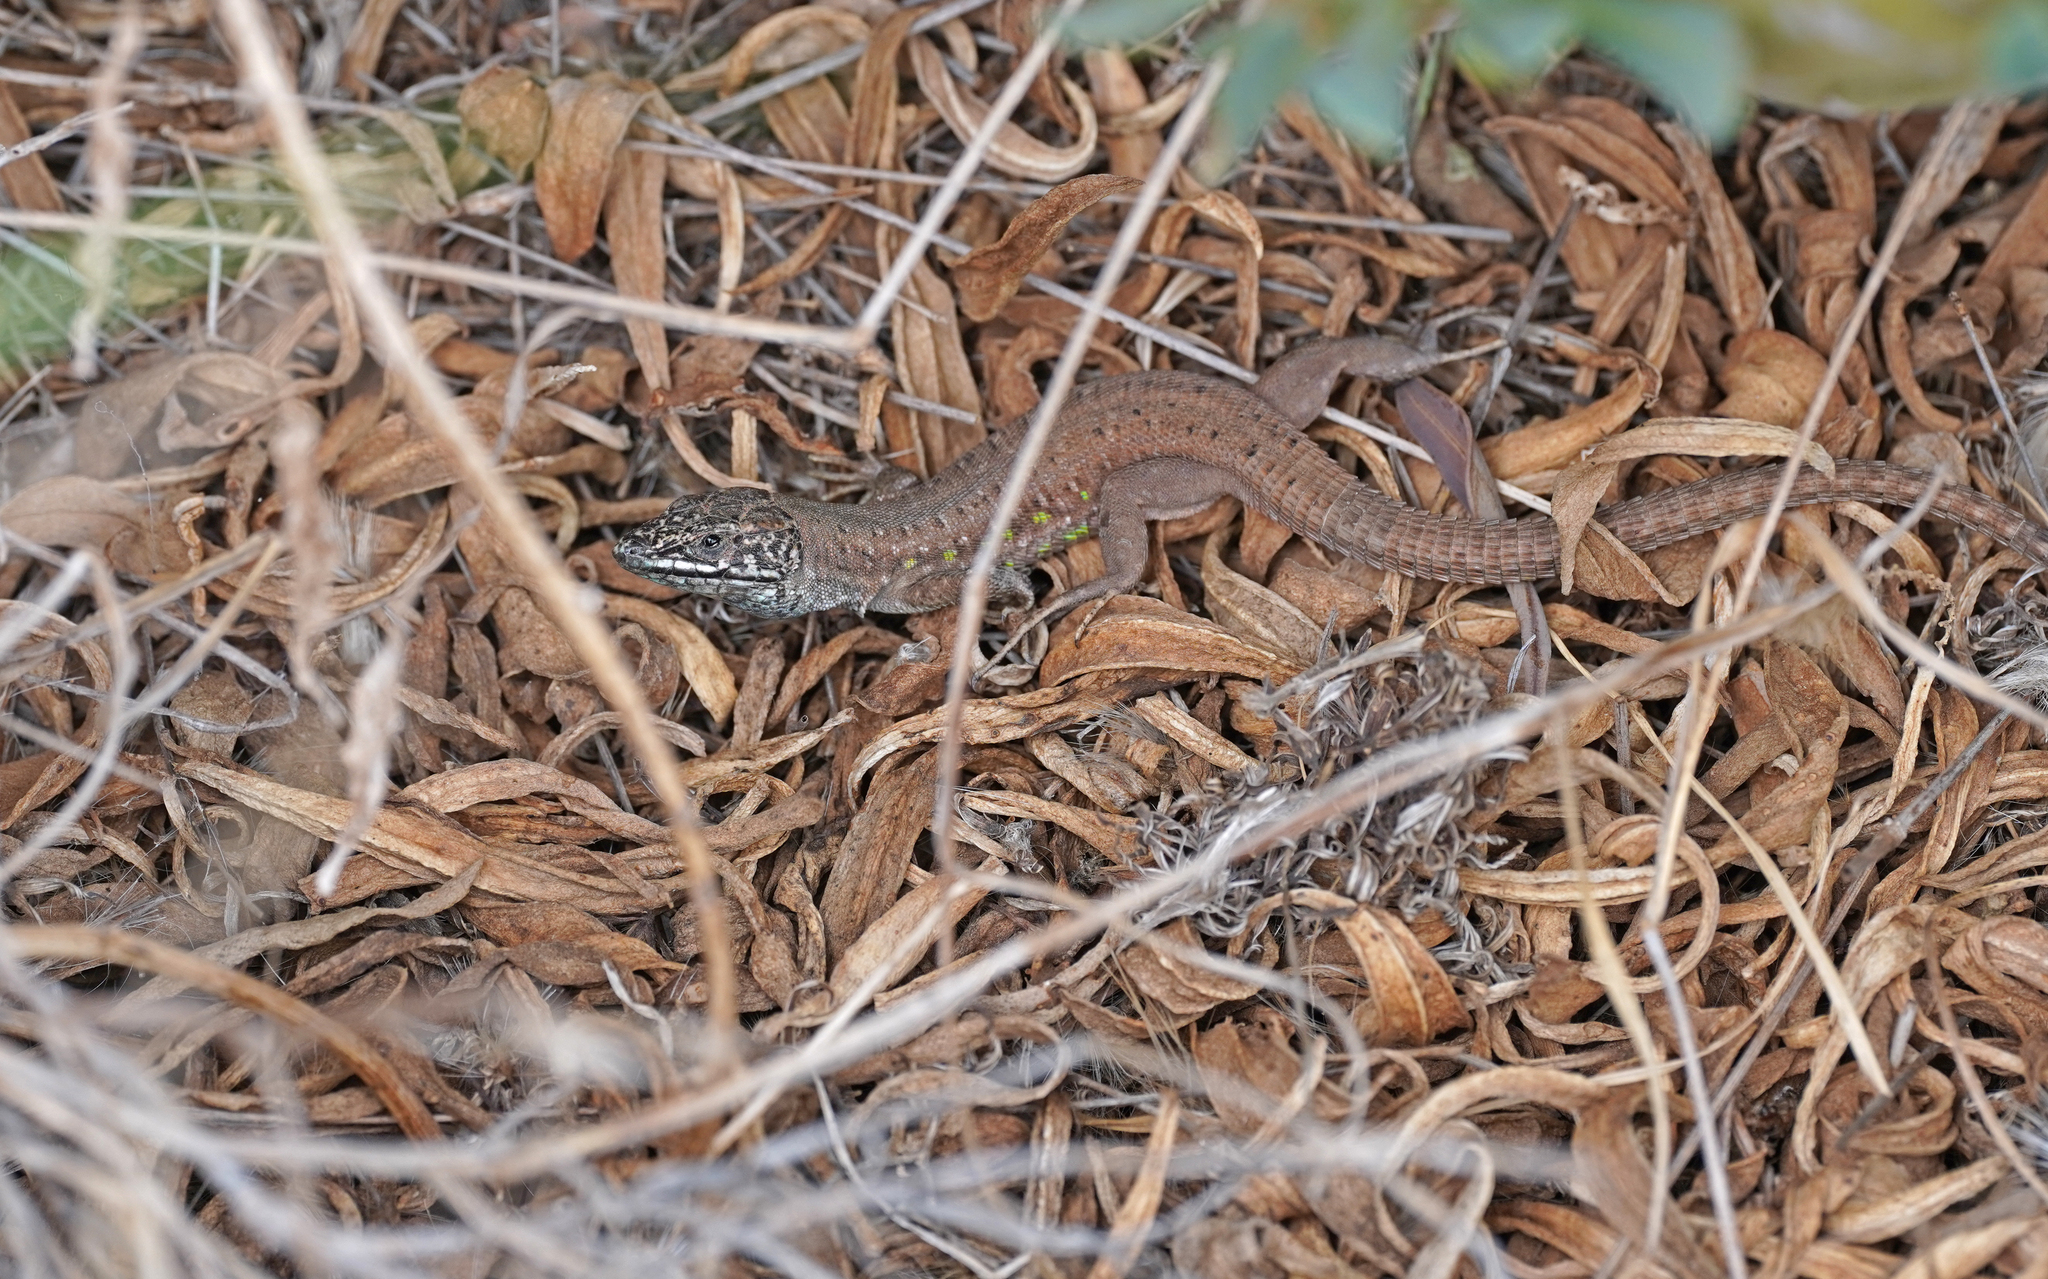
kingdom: Animalia
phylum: Chordata
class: Squamata
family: Lacertidae
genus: Gallotia
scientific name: Gallotia atlantica
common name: Atlantic lizard
